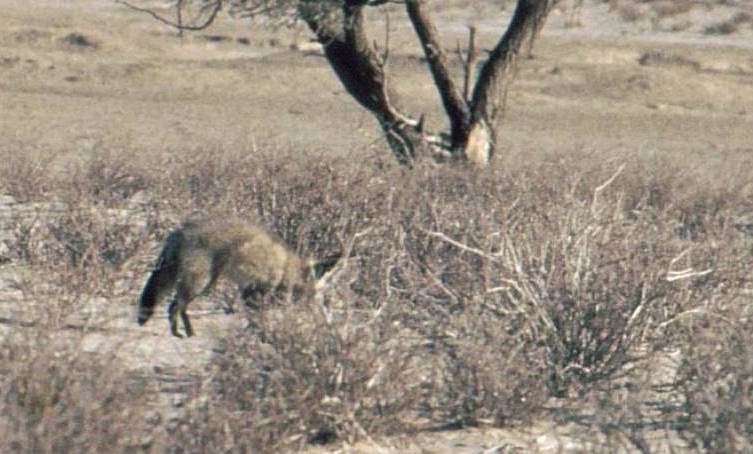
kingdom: Animalia
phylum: Chordata
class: Mammalia
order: Carnivora
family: Canidae
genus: Otocyon
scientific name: Otocyon megalotis
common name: Bat-eared fox
